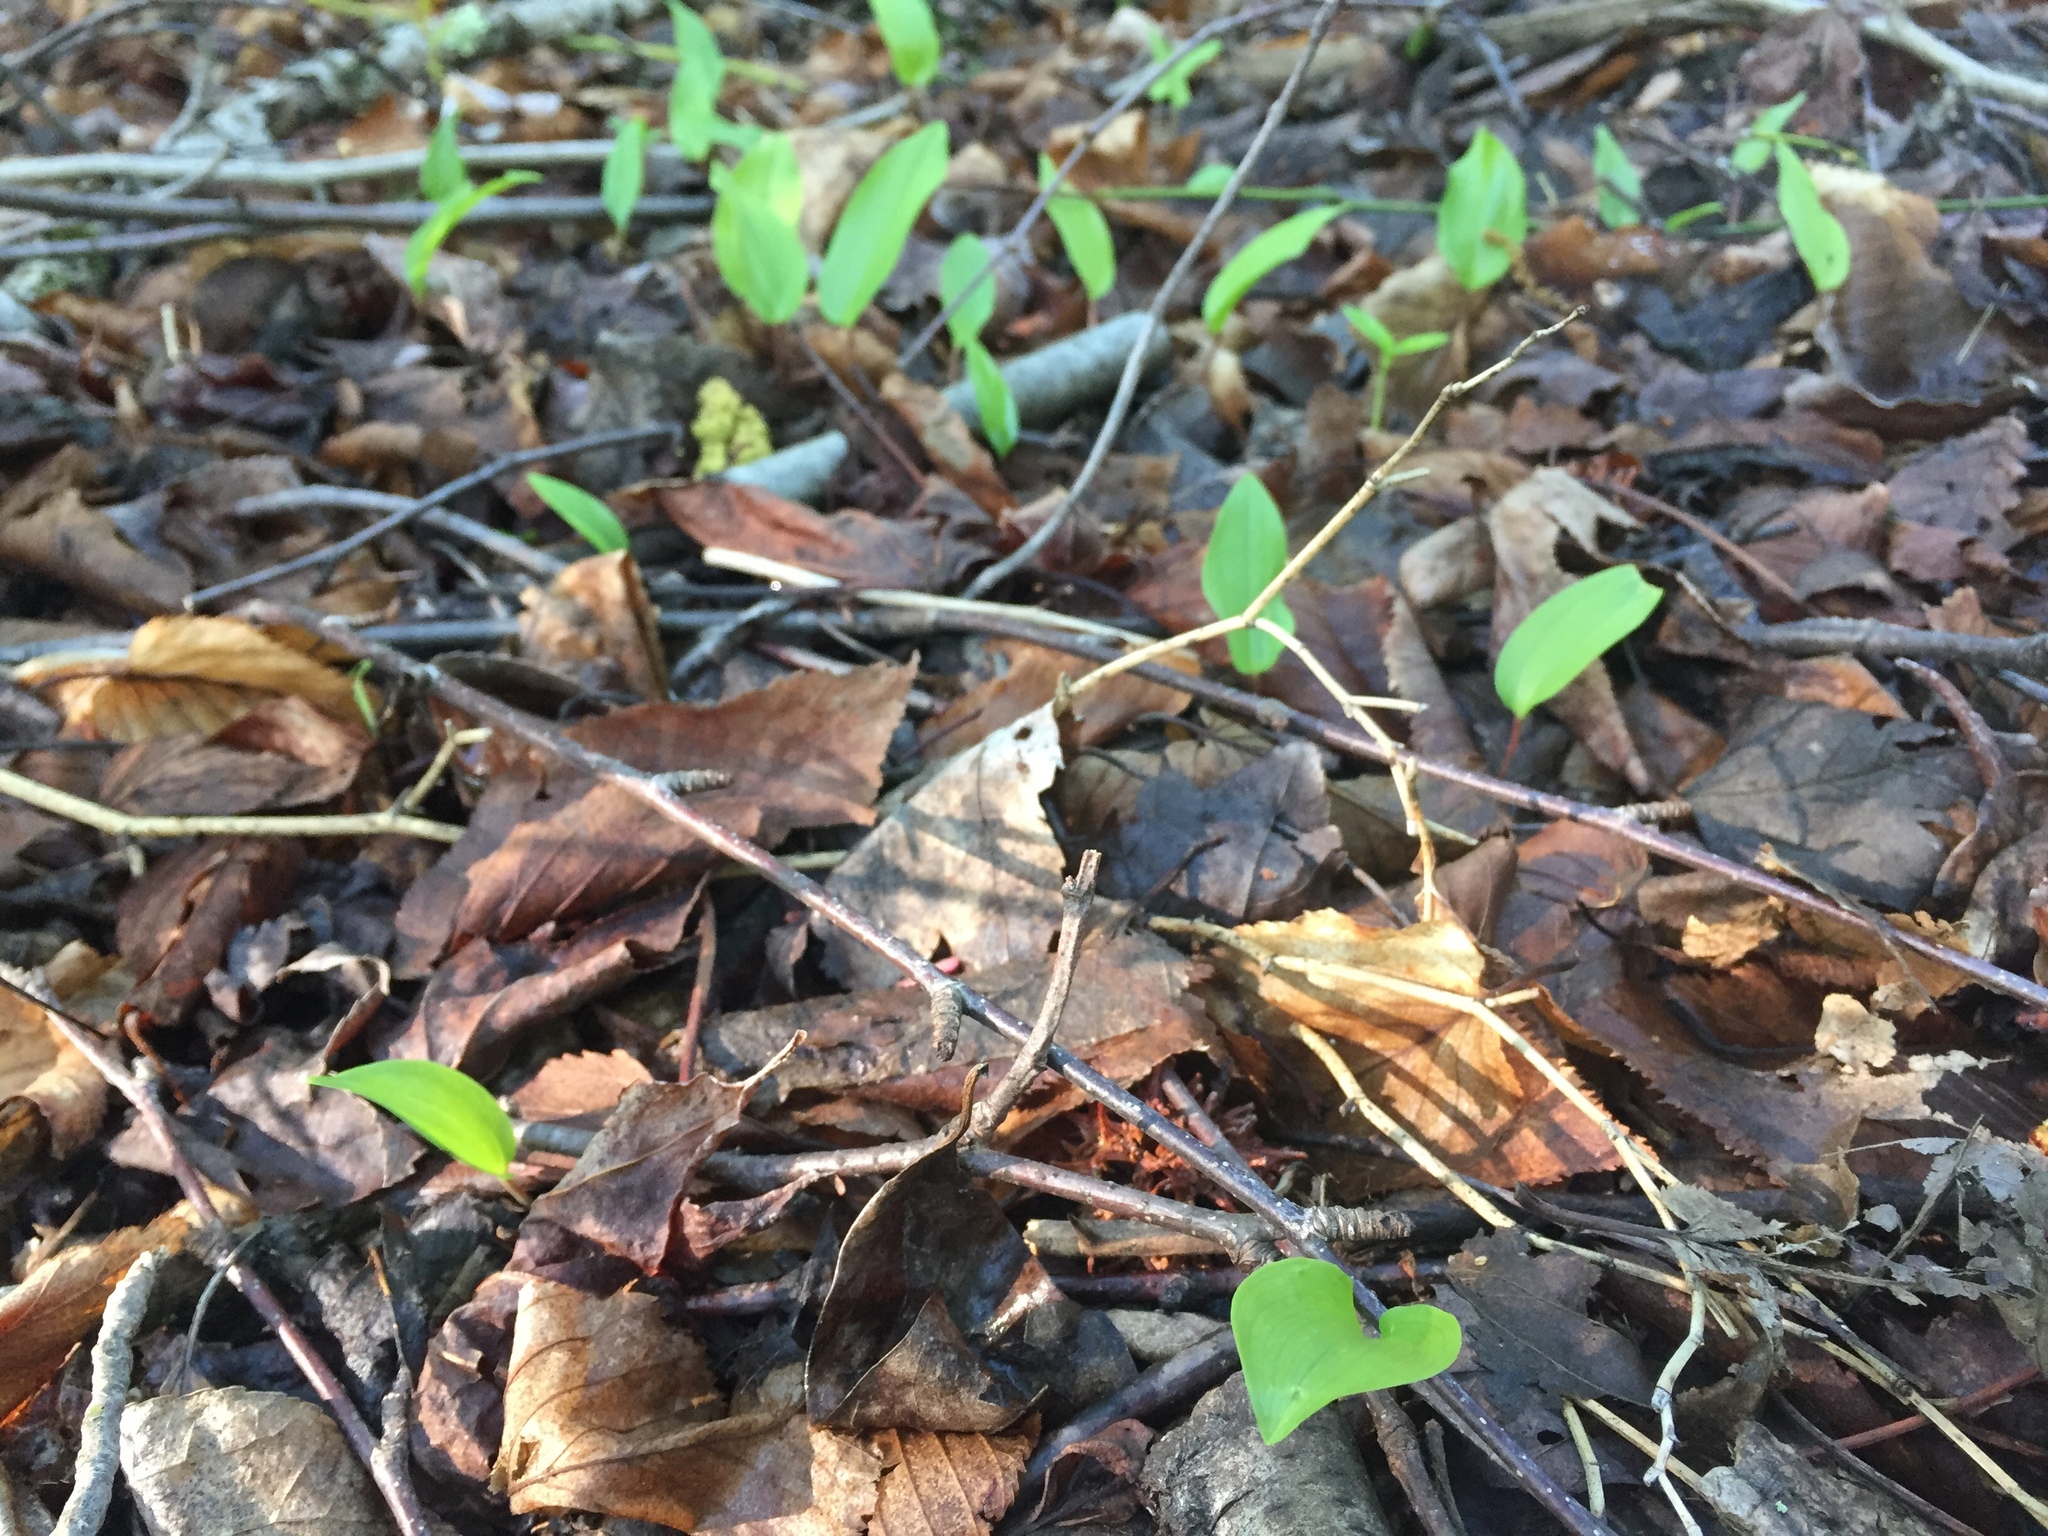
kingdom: Plantae
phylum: Tracheophyta
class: Liliopsida
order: Asparagales
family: Asparagaceae
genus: Maianthemum
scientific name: Maianthemum canadense
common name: False lily-of-the-valley
